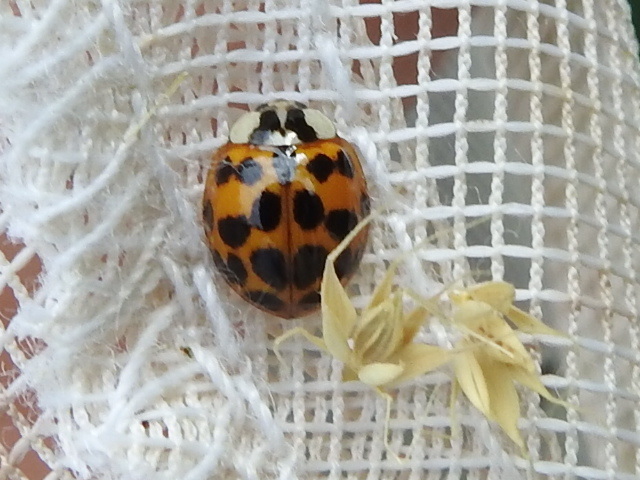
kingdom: Animalia
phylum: Arthropoda
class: Insecta
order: Coleoptera
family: Coccinellidae
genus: Harmonia
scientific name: Harmonia axyridis
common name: Harlequin ladybird
